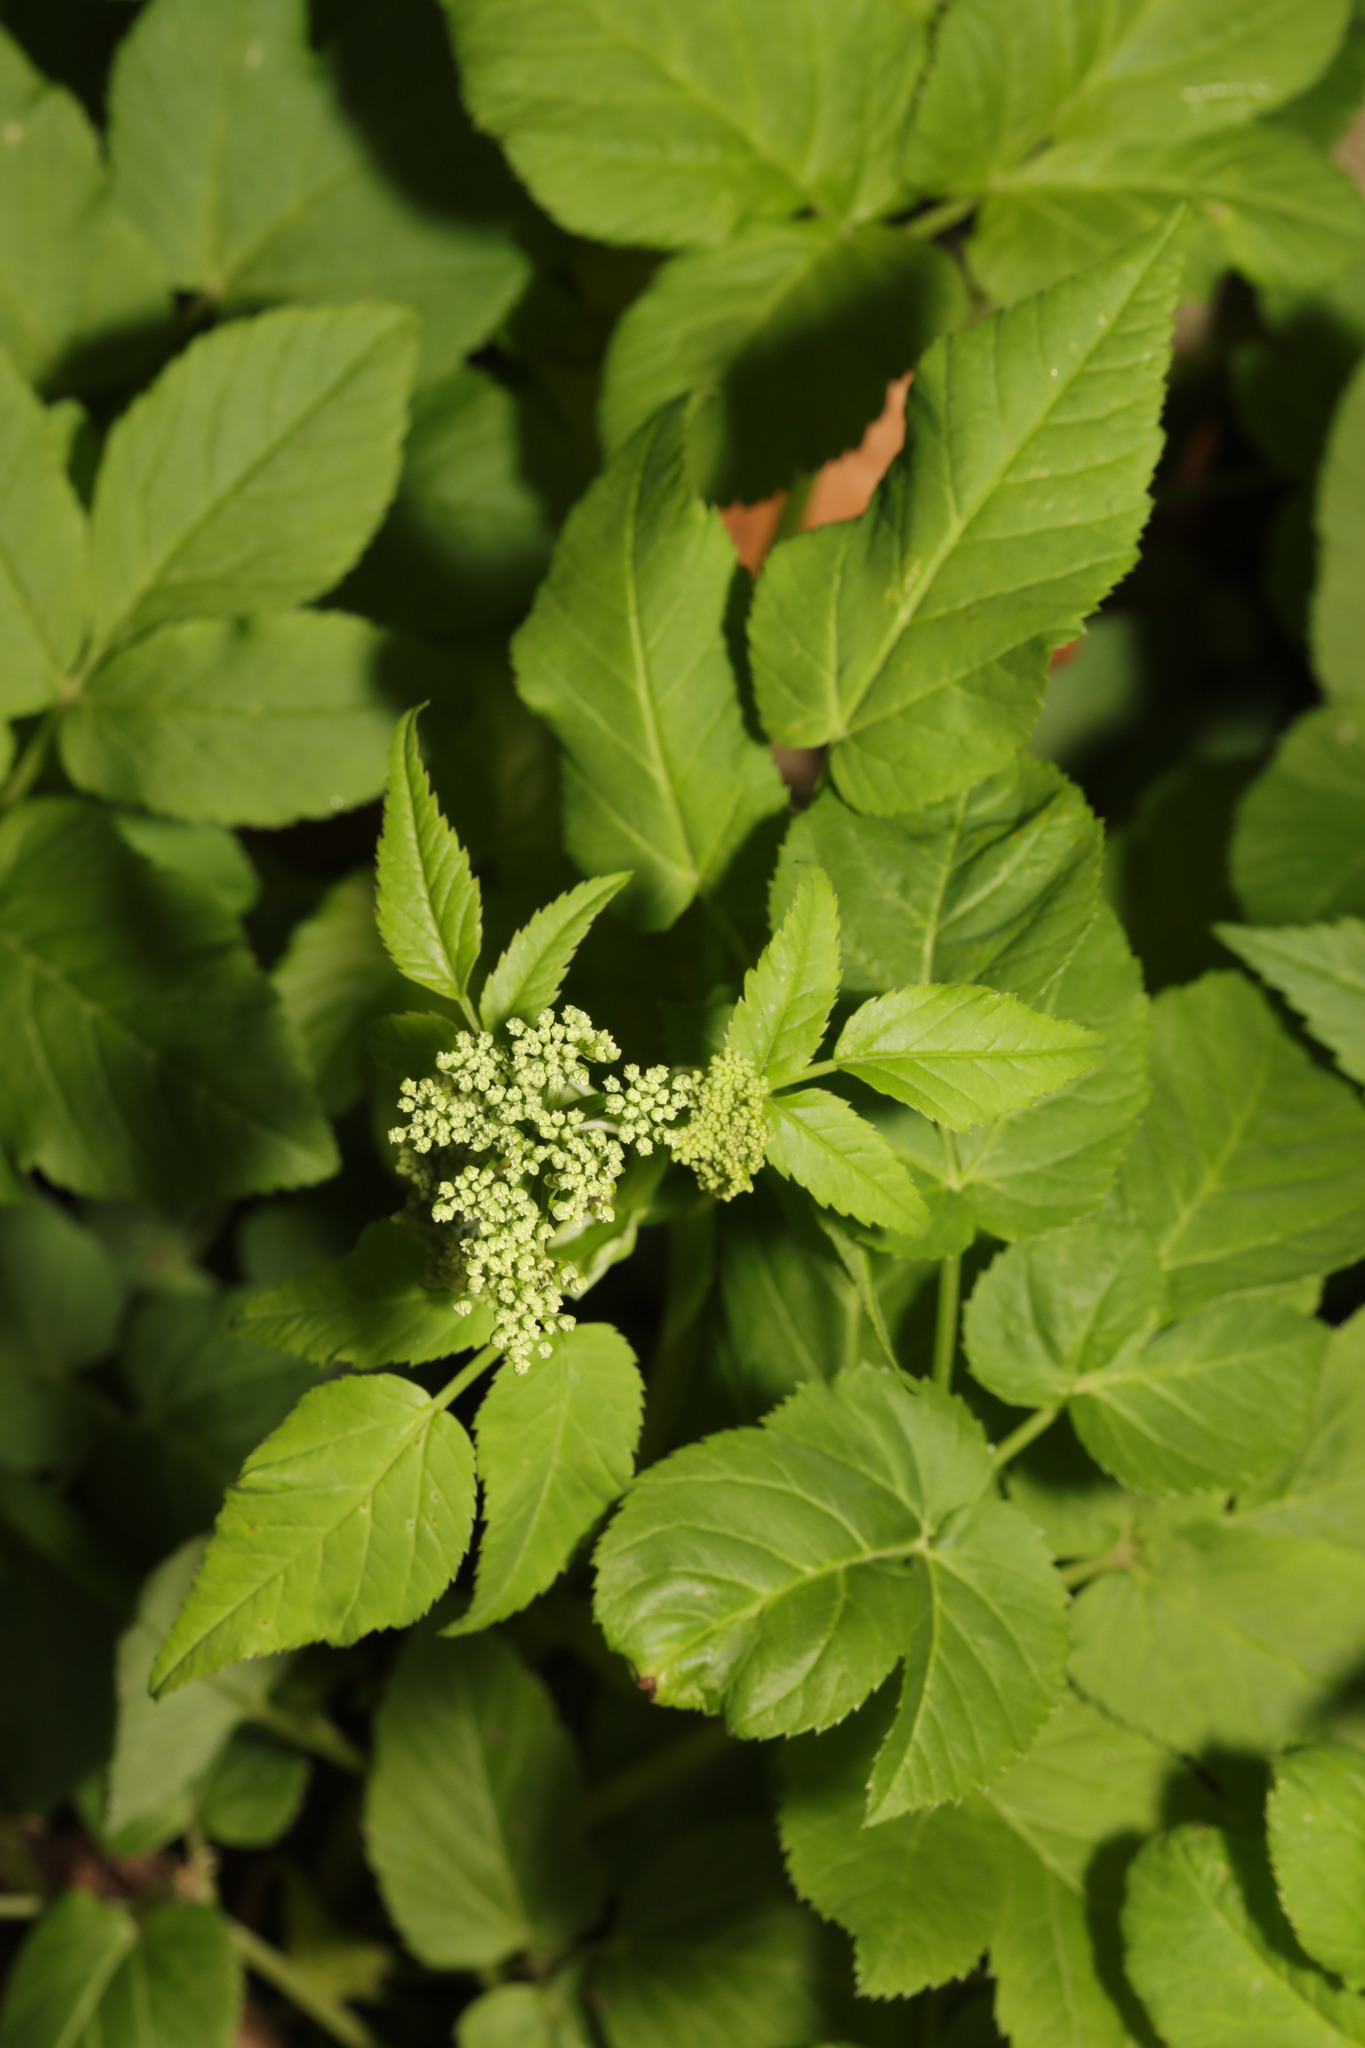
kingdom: Plantae
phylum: Tracheophyta
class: Magnoliopsida
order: Dipsacales
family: Viburnaceae
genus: Sambucus
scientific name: Sambucus nigra
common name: Elder
